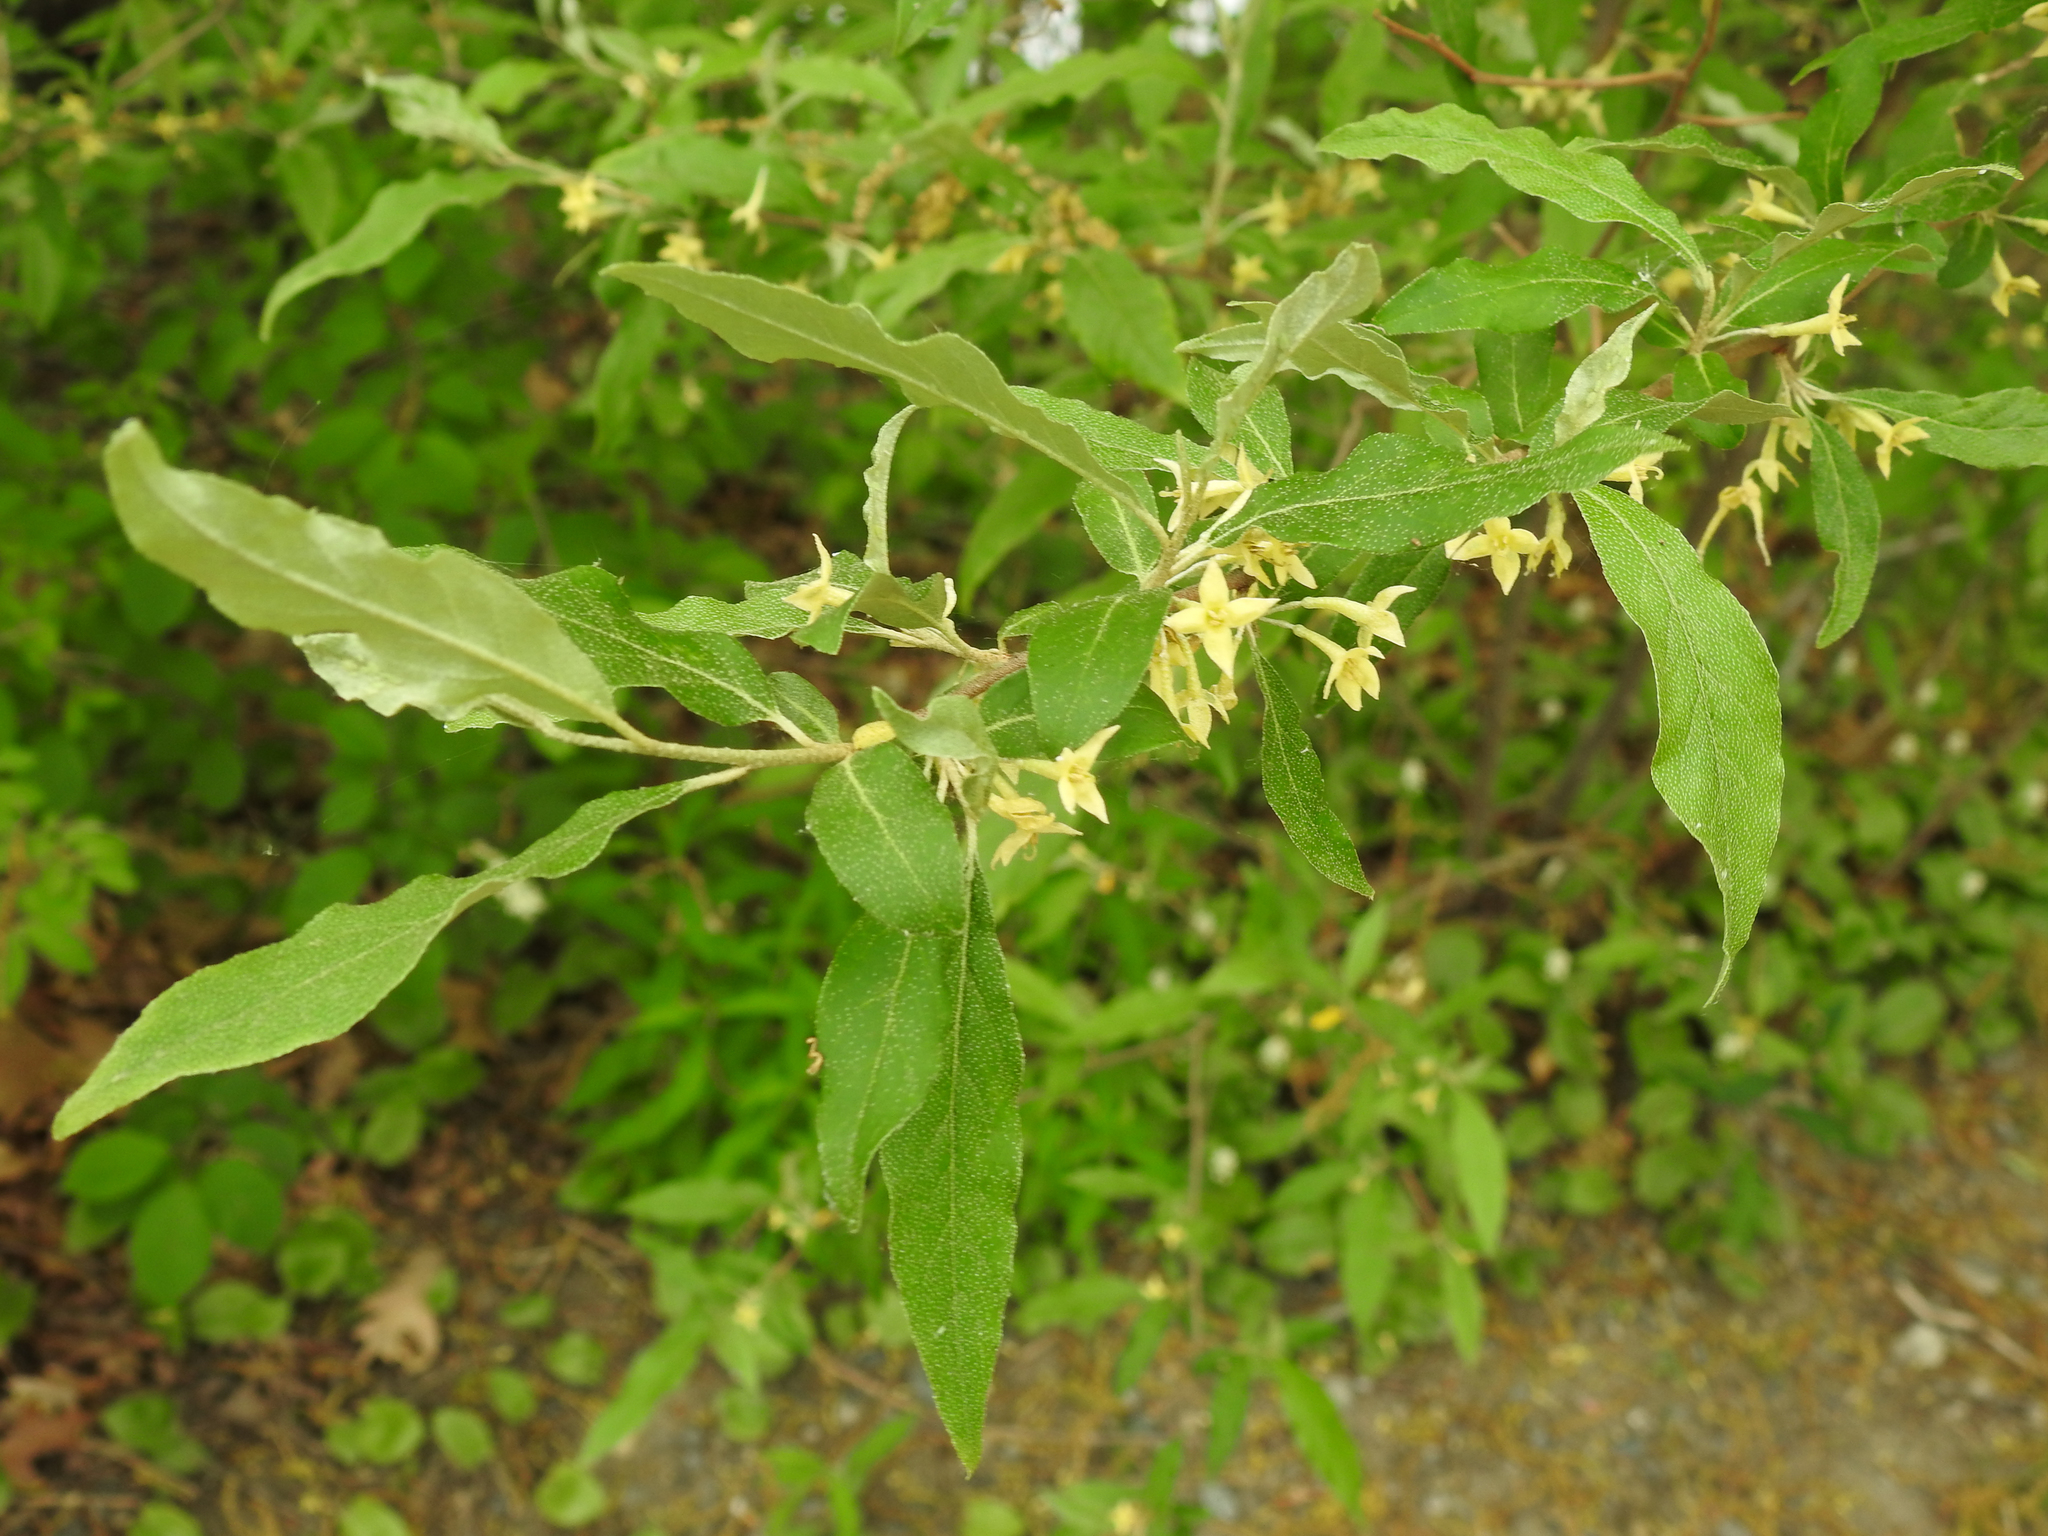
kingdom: Plantae
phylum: Tracheophyta
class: Magnoliopsida
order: Rosales
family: Elaeagnaceae
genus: Elaeagnus
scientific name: Elaeagnus umbellata
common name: Autumn olive
